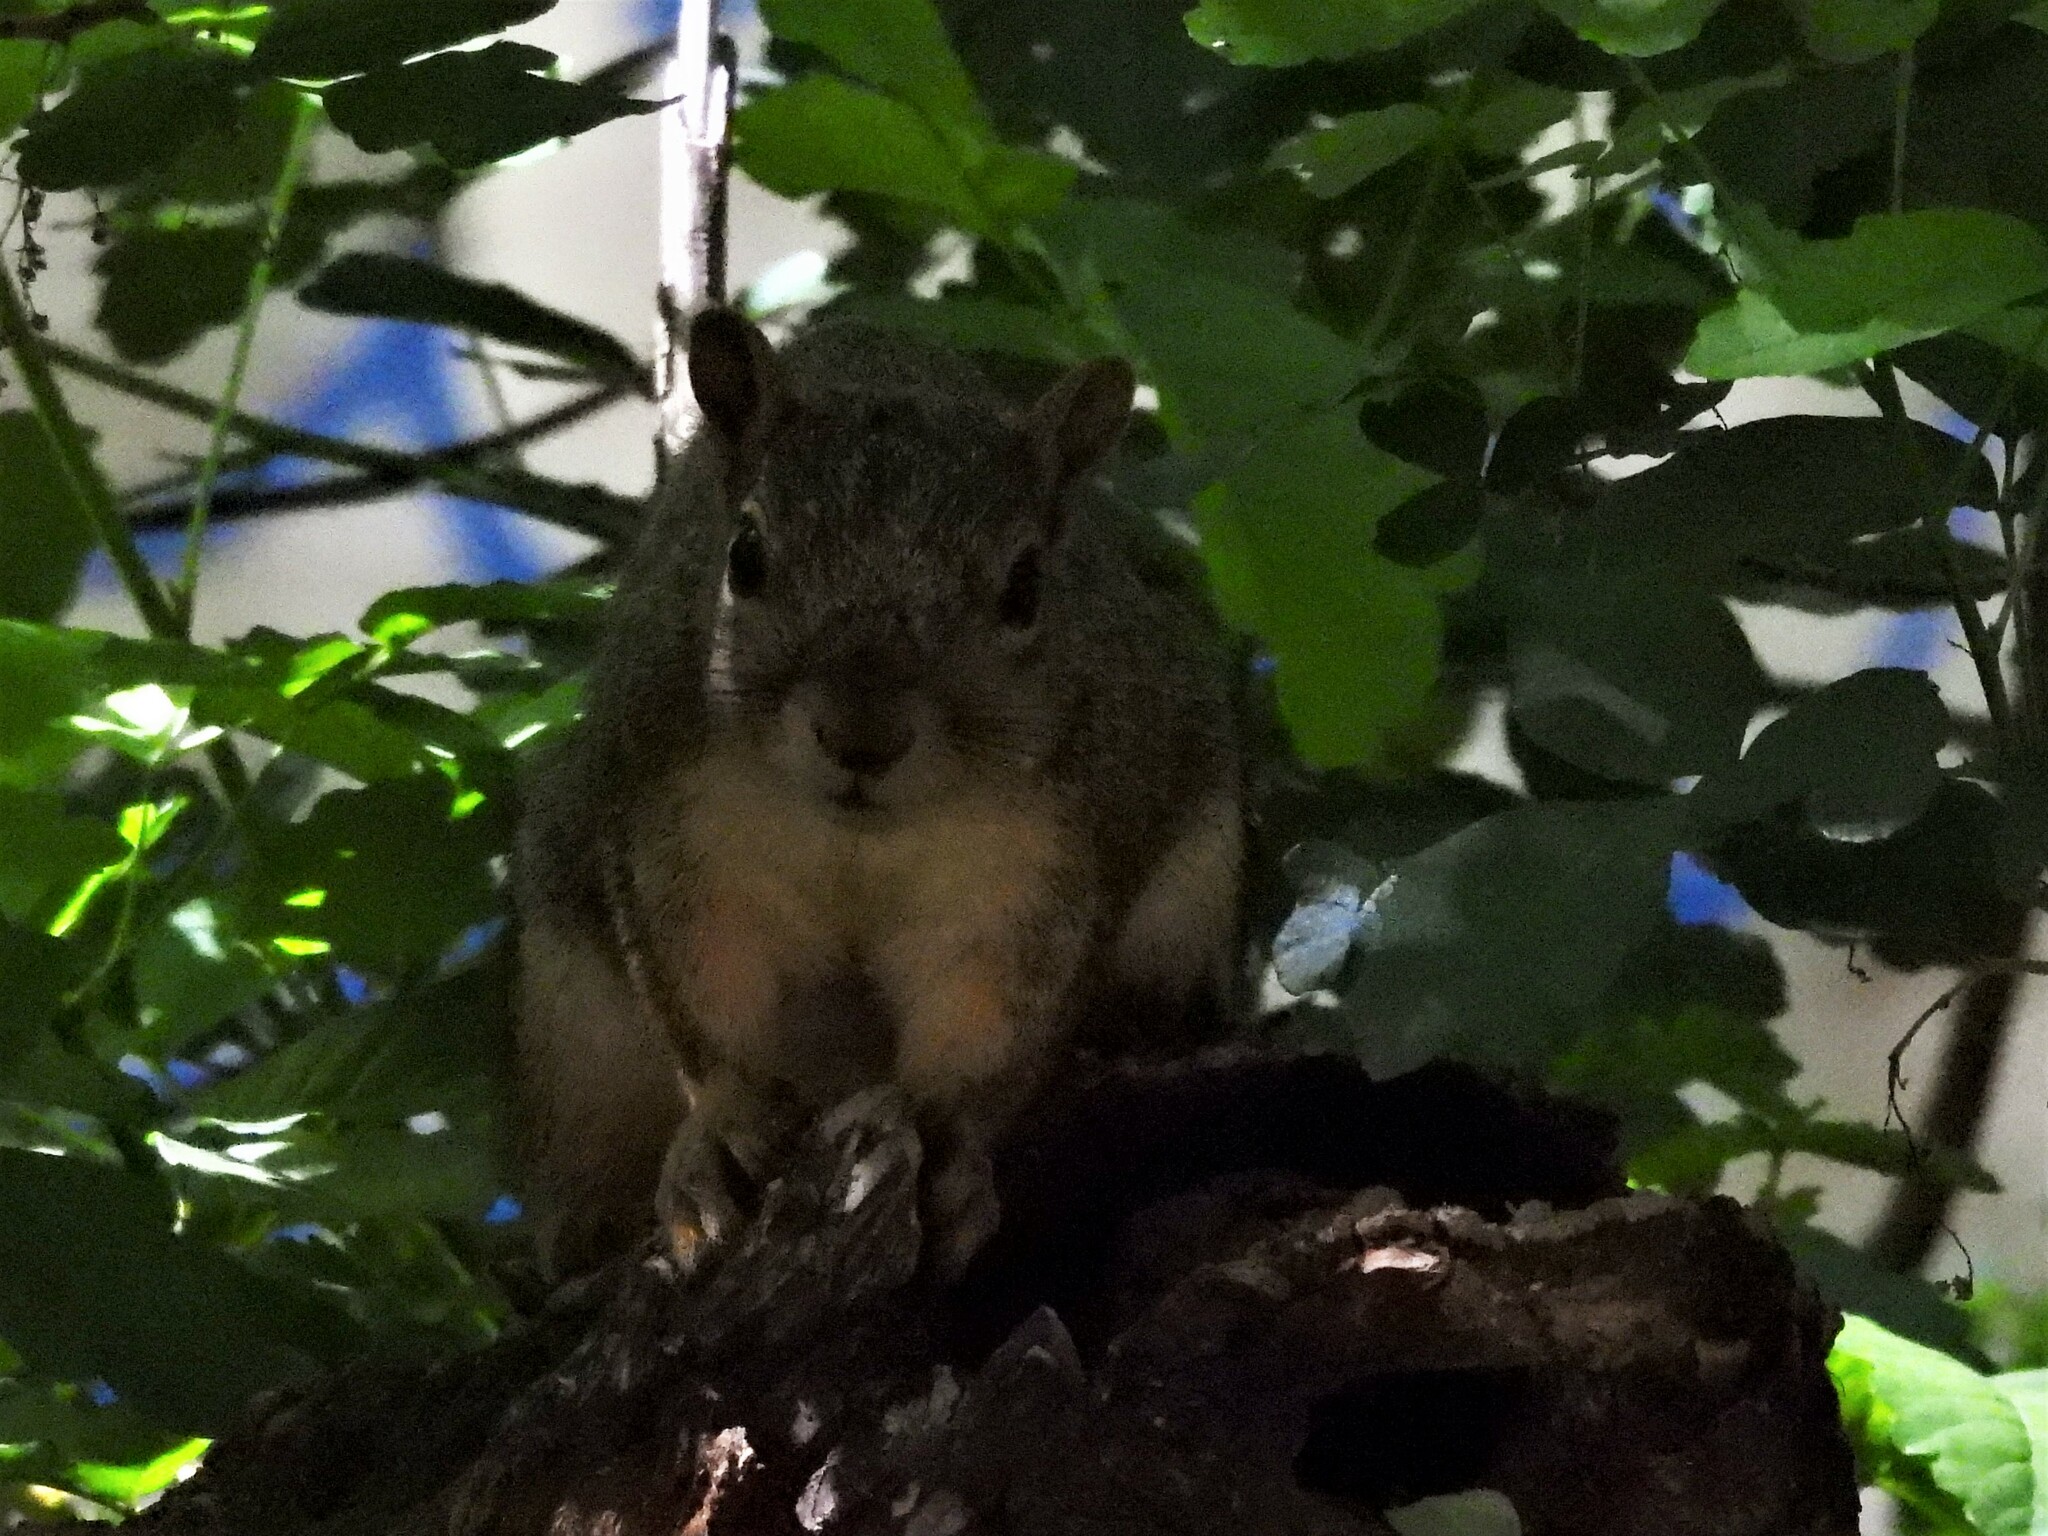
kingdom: Animalia
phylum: Chordata
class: Mammalia
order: Rodentia
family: Sciuridae
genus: Sciurus
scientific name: Sciurus niger
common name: Fox squirrel
